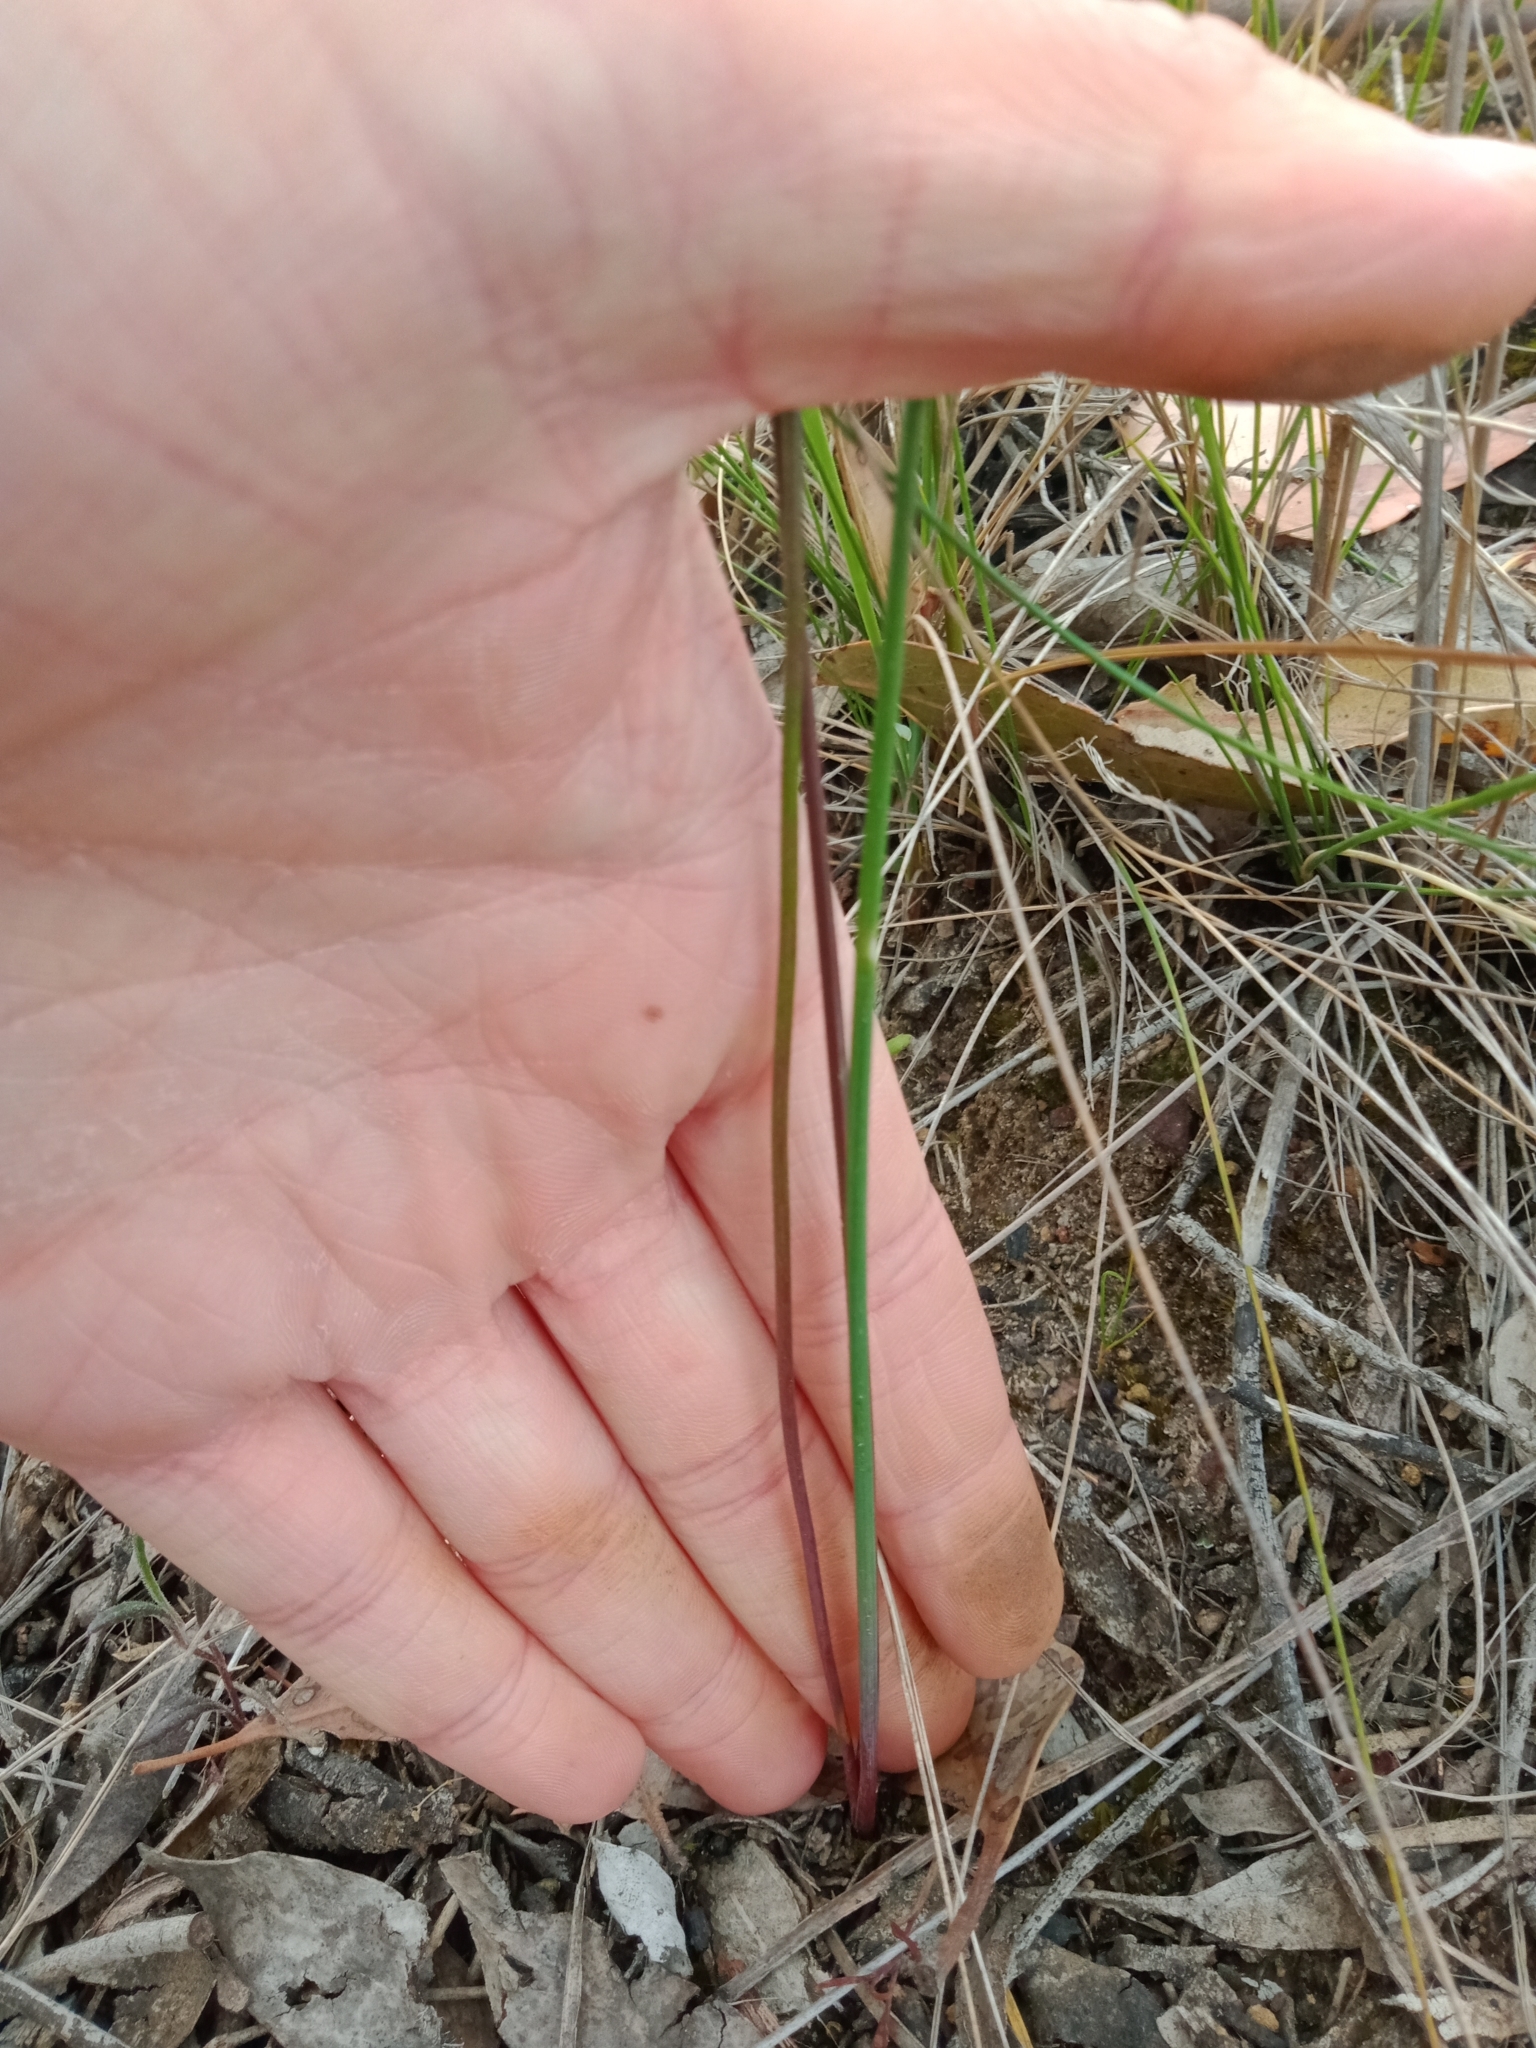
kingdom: Plantae
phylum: Tracheophyta
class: Liliopsida
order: Asparagales
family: Asparagaceae
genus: Thysanotus
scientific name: Thysanotus tuberosus
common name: Common fringed-lily
